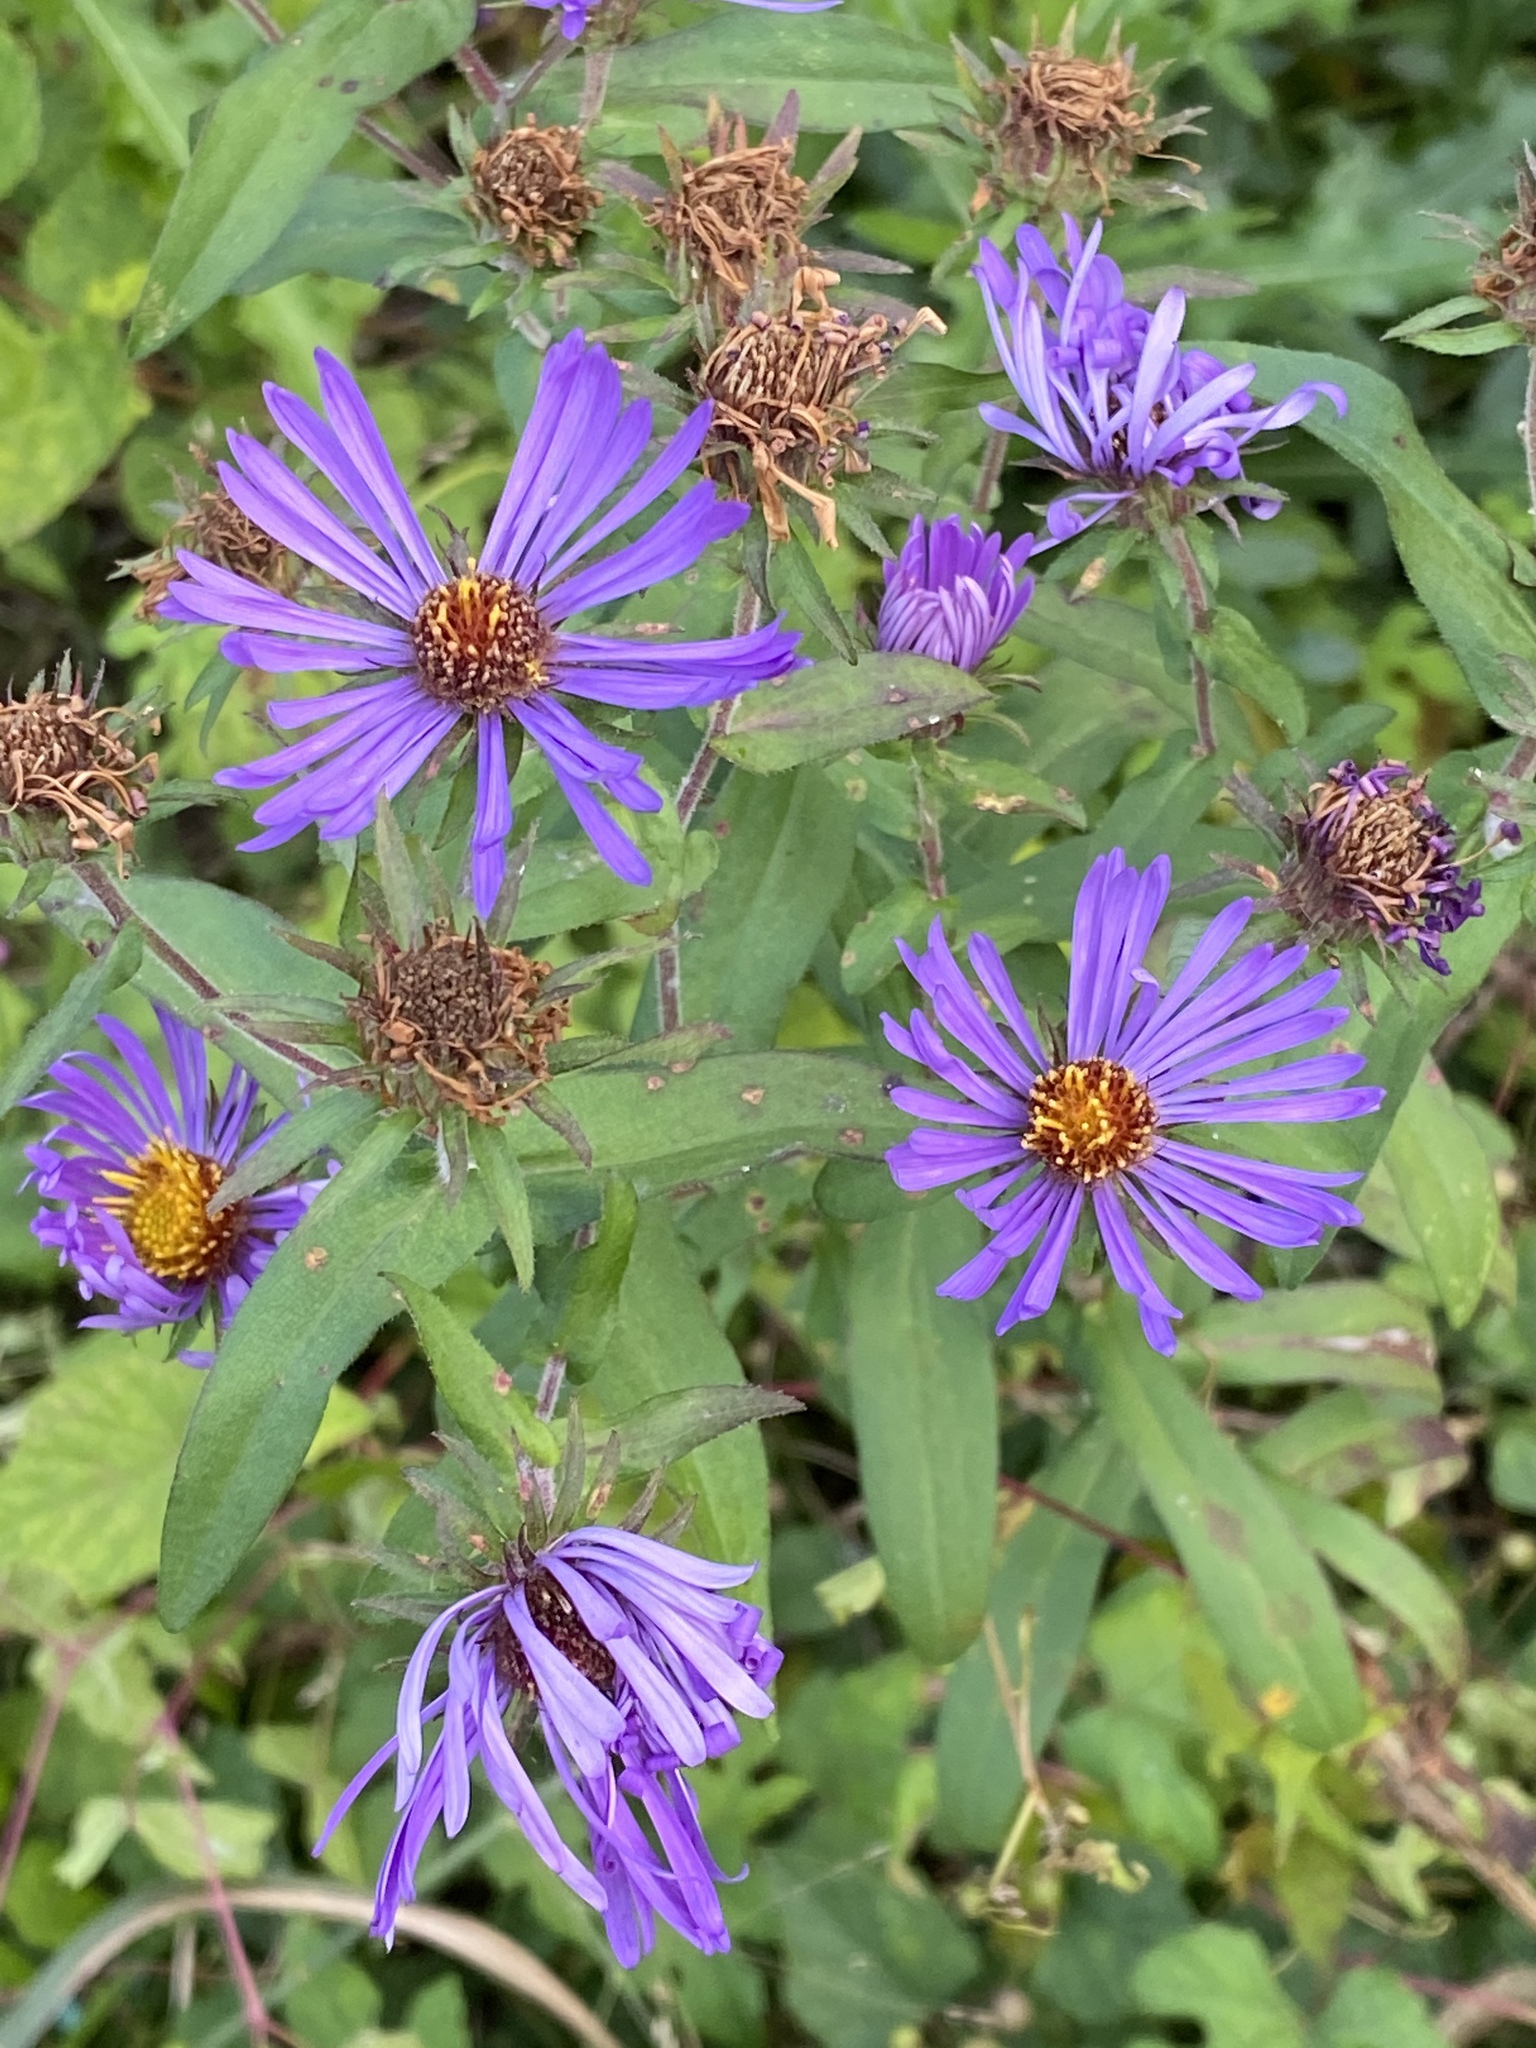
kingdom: Plantae
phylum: Tracheophyta
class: Magnoliopsida
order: Asterales
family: Asteraceae
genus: Symphyotrichum
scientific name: Symphyotrichum novae-angliae
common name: Michaelmas daisy
